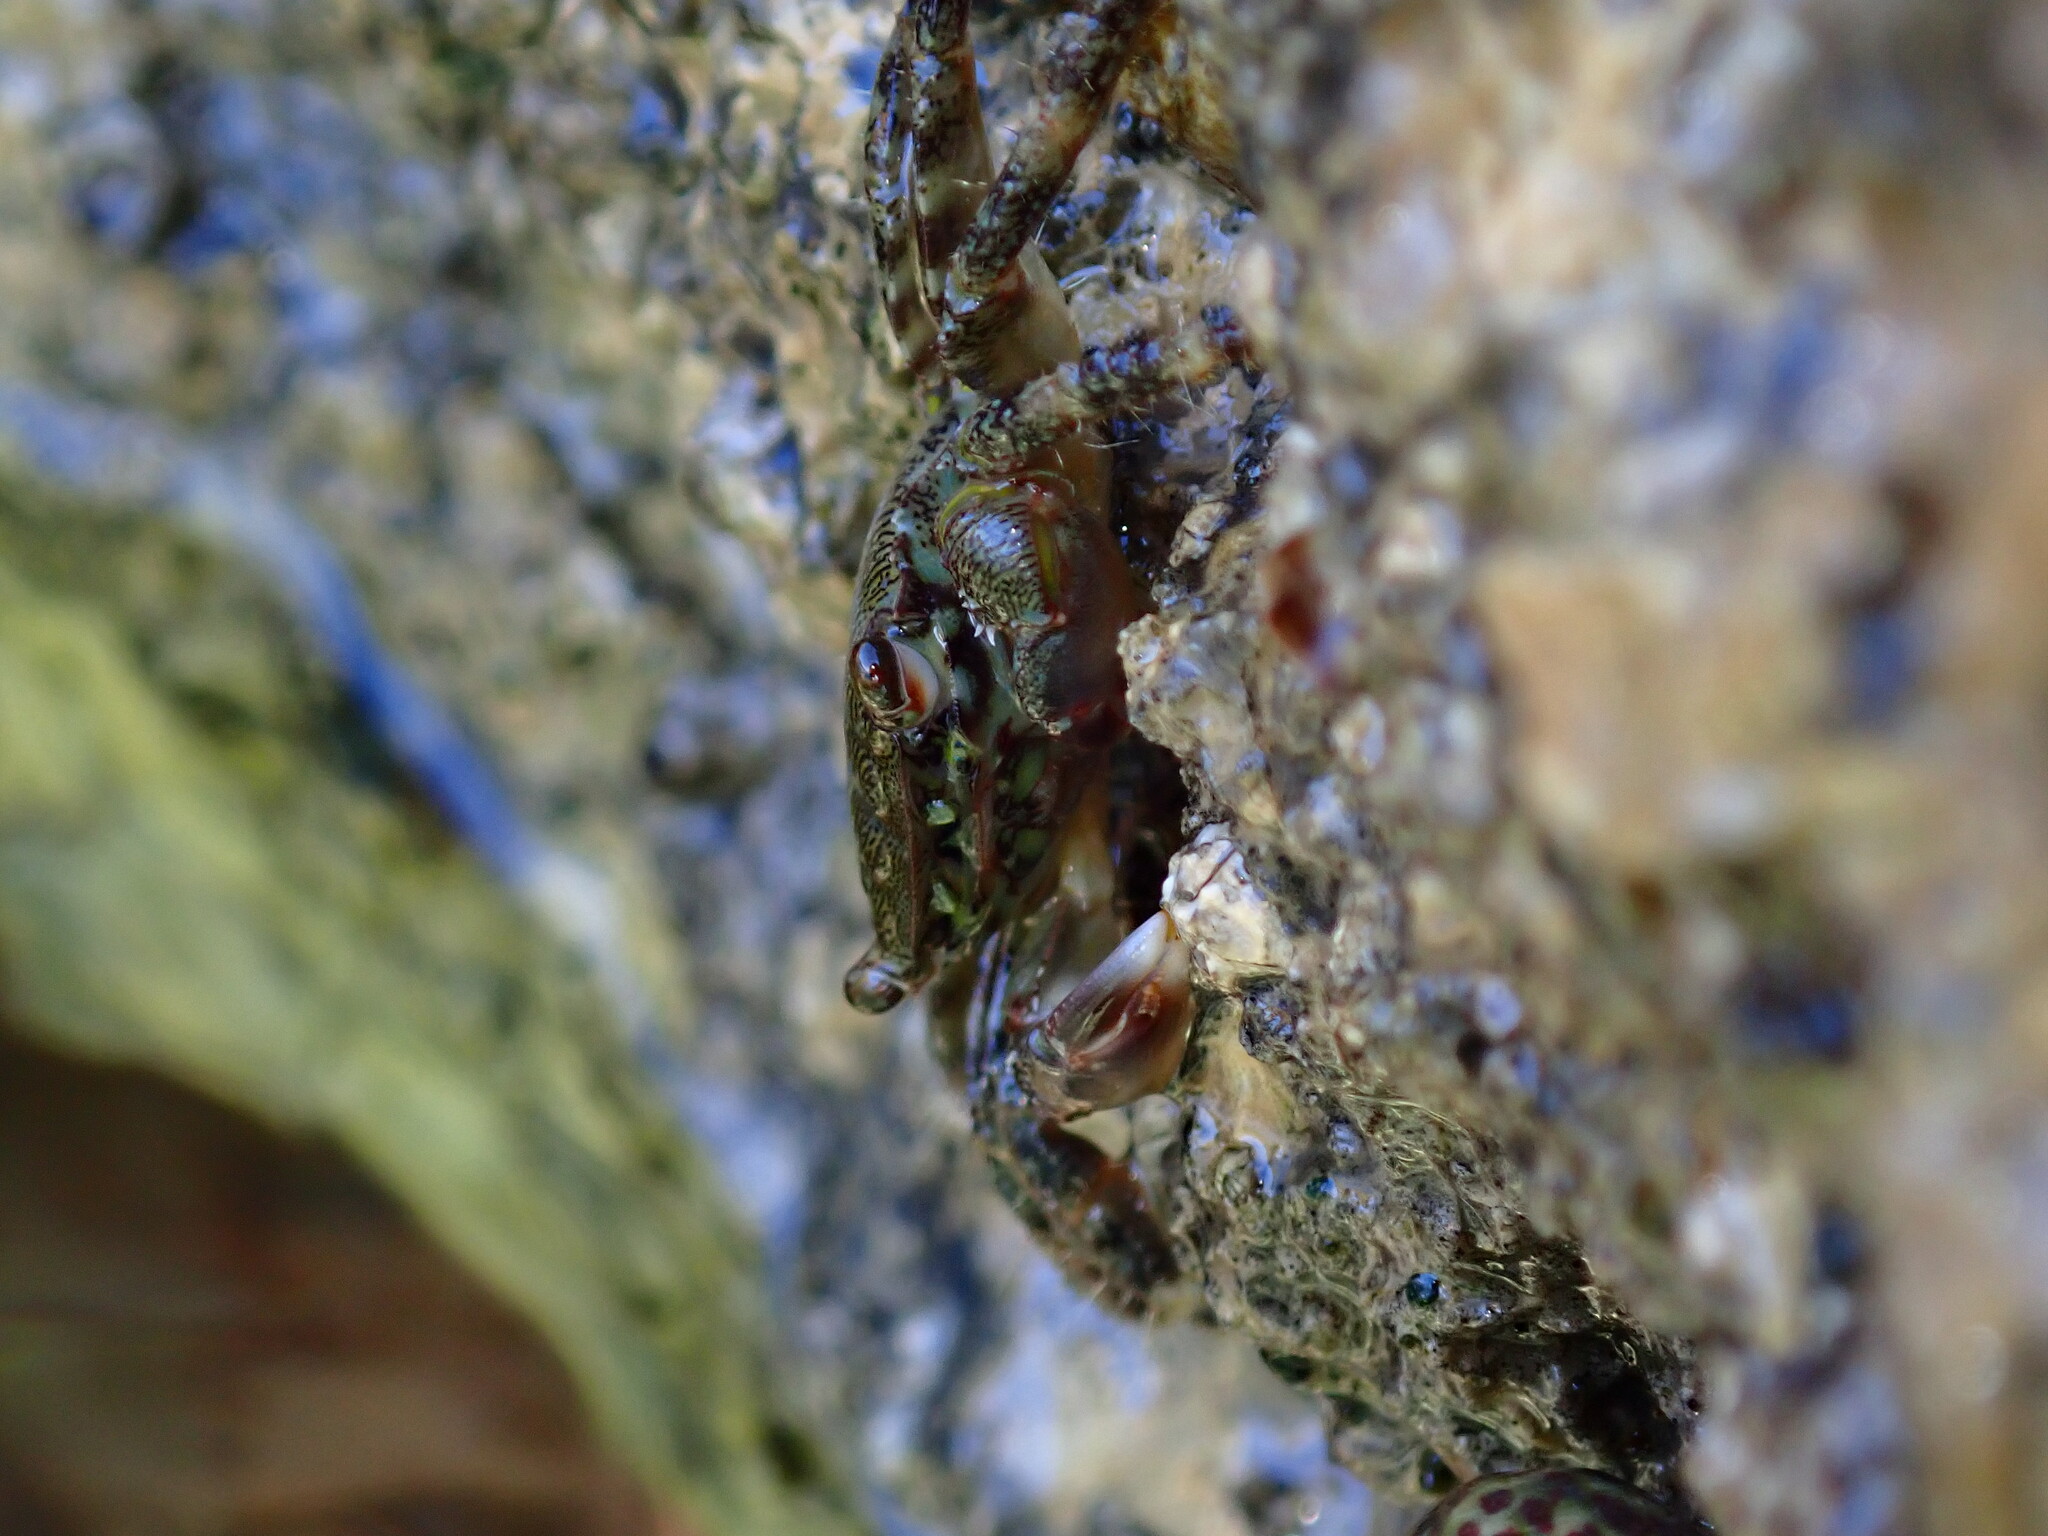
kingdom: Animalia
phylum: Arthropoda
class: Malacostraca
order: Decapoda
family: Grapsidae
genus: Pachygrapsus
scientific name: Pachygrapsus marmoratus
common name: Marbled rock crab
